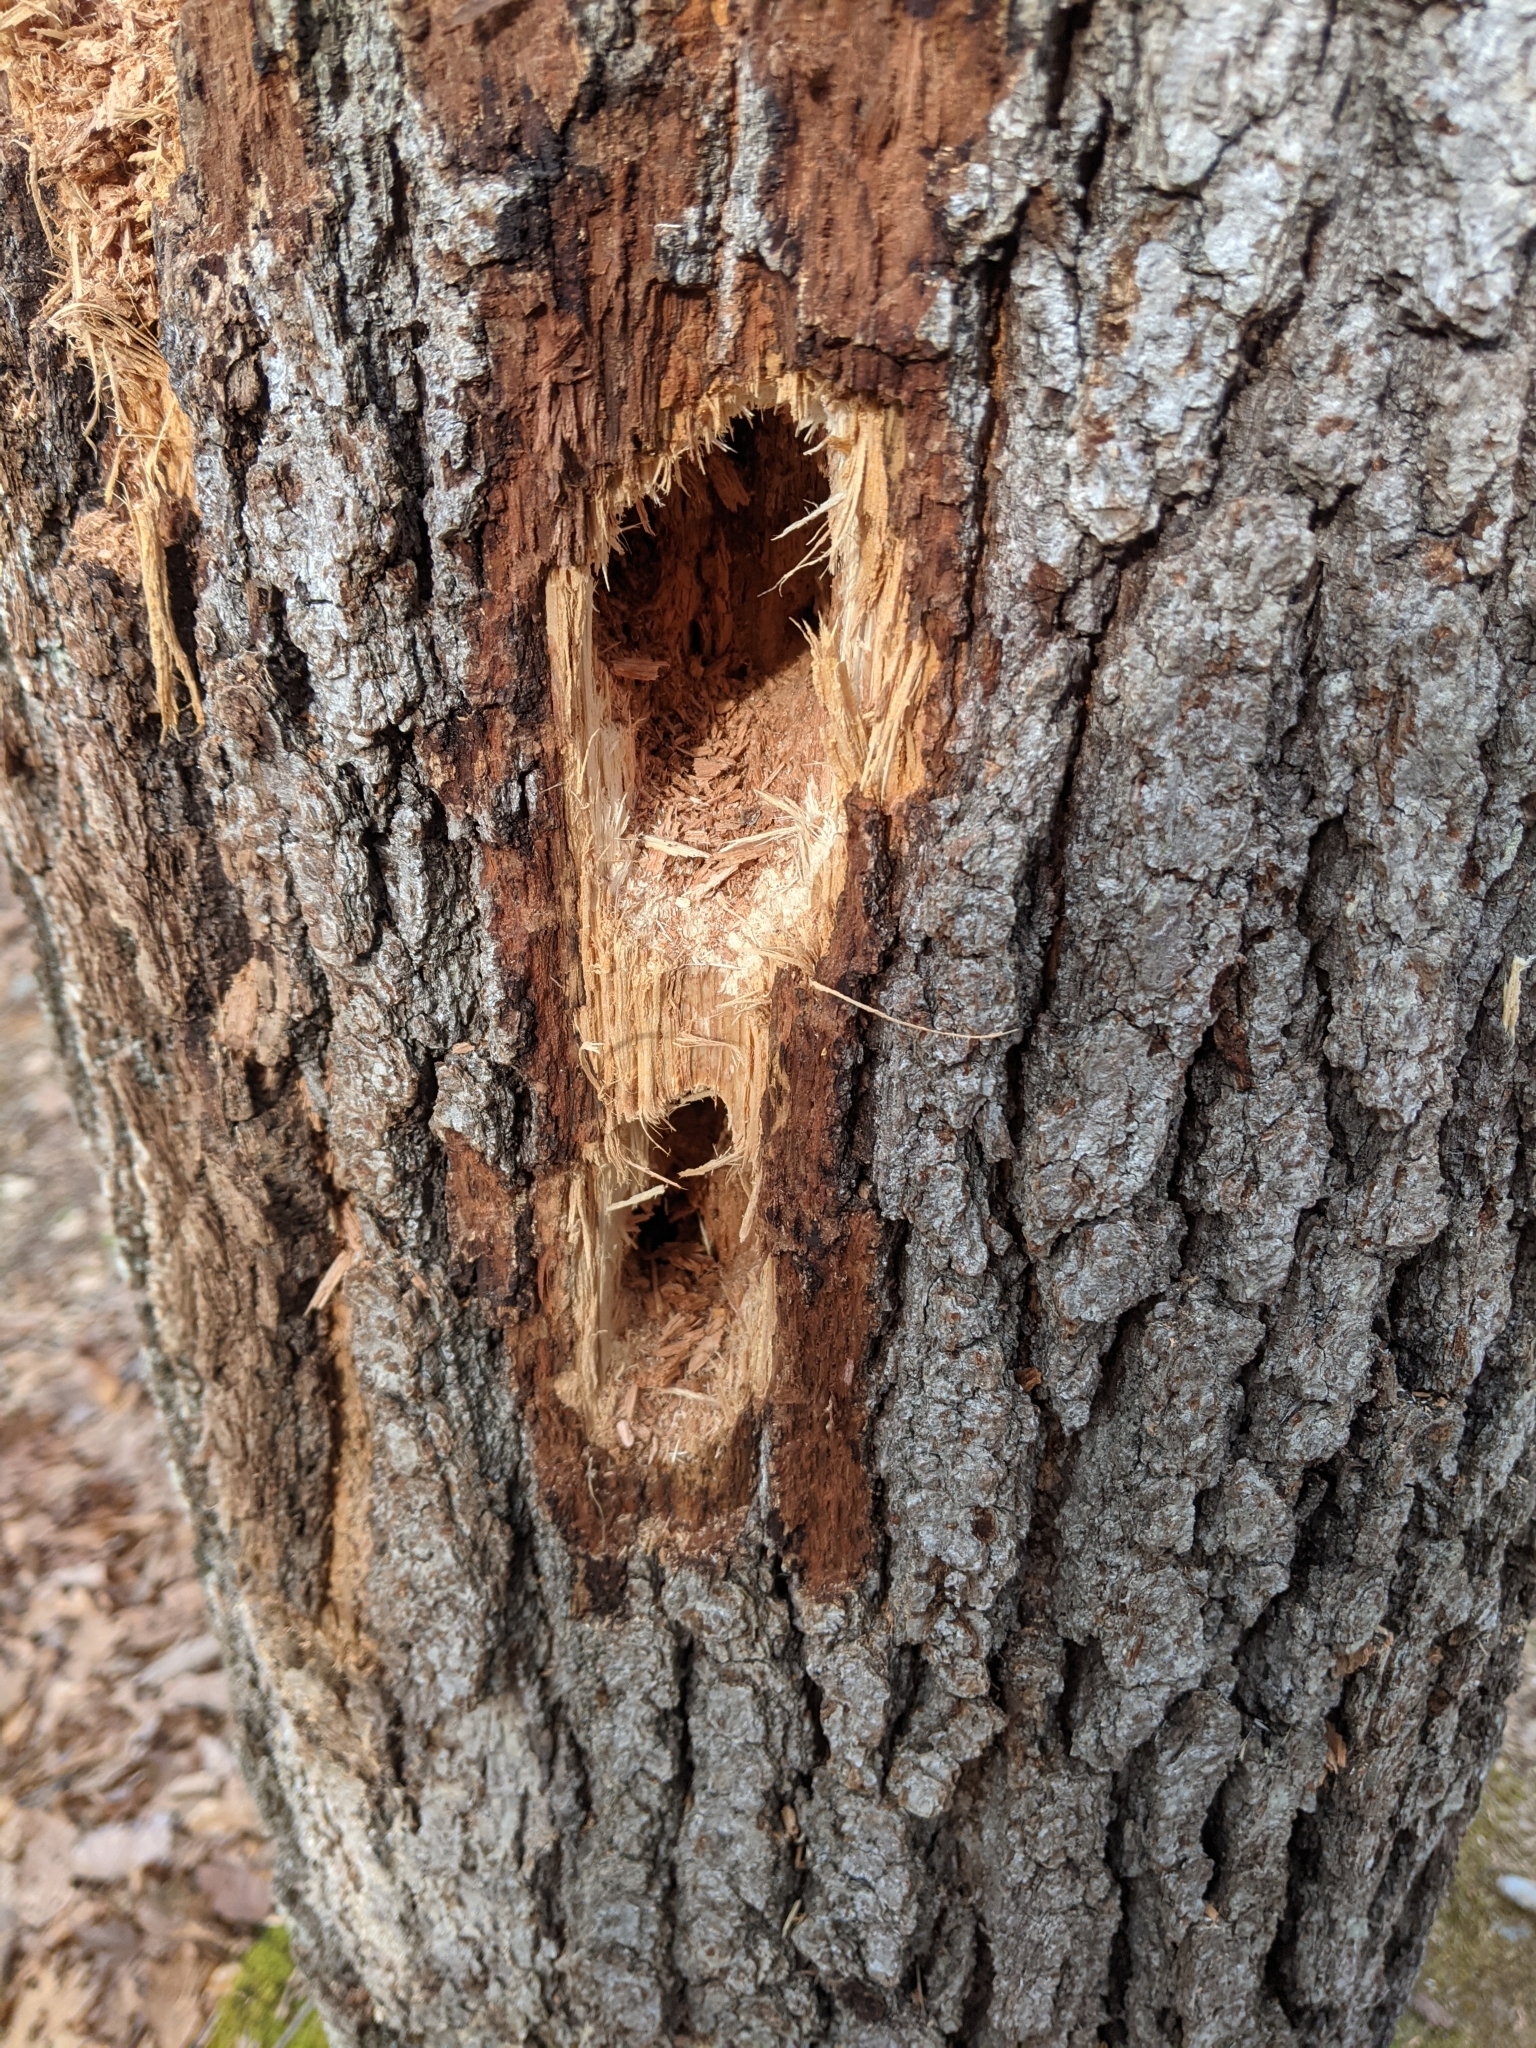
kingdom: Animalia
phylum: Chordata
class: Aves
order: Piciformes
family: Picidae
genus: Dryocopus
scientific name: Dryocopus pileatus
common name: Pileated woodpecker
